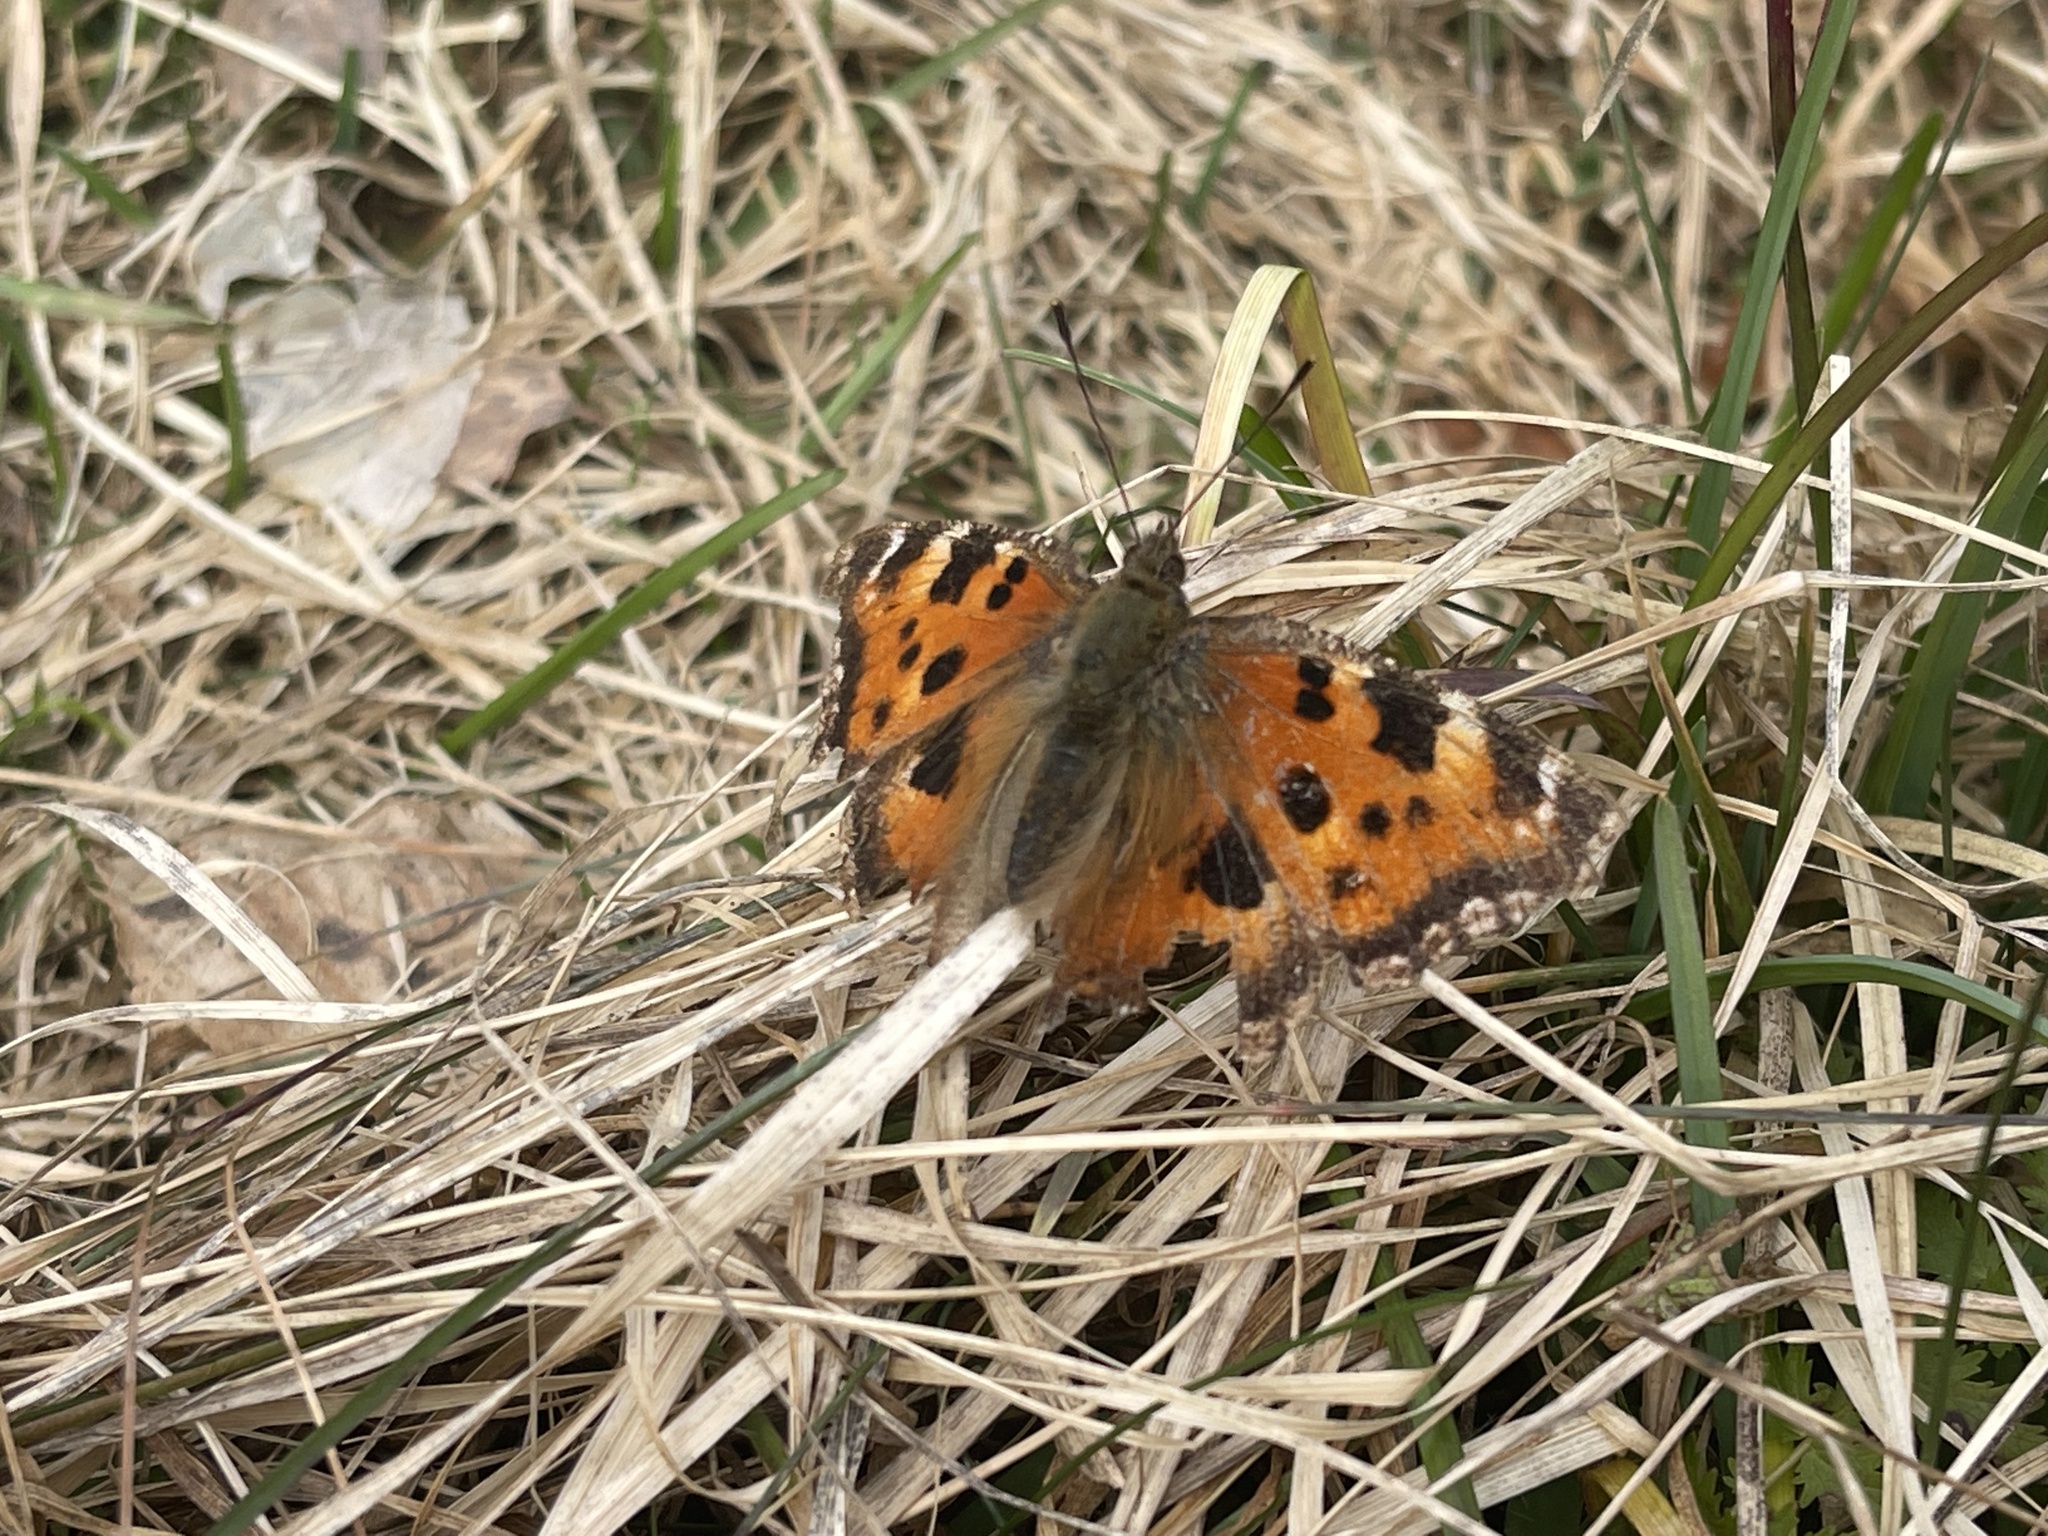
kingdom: Animalia
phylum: Arthropoda
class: Insecta
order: Lepidoptera
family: Nymphalidae
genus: Nymphalis
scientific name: Nymphalis xanthomelas
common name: Scarce tortoiseshell
